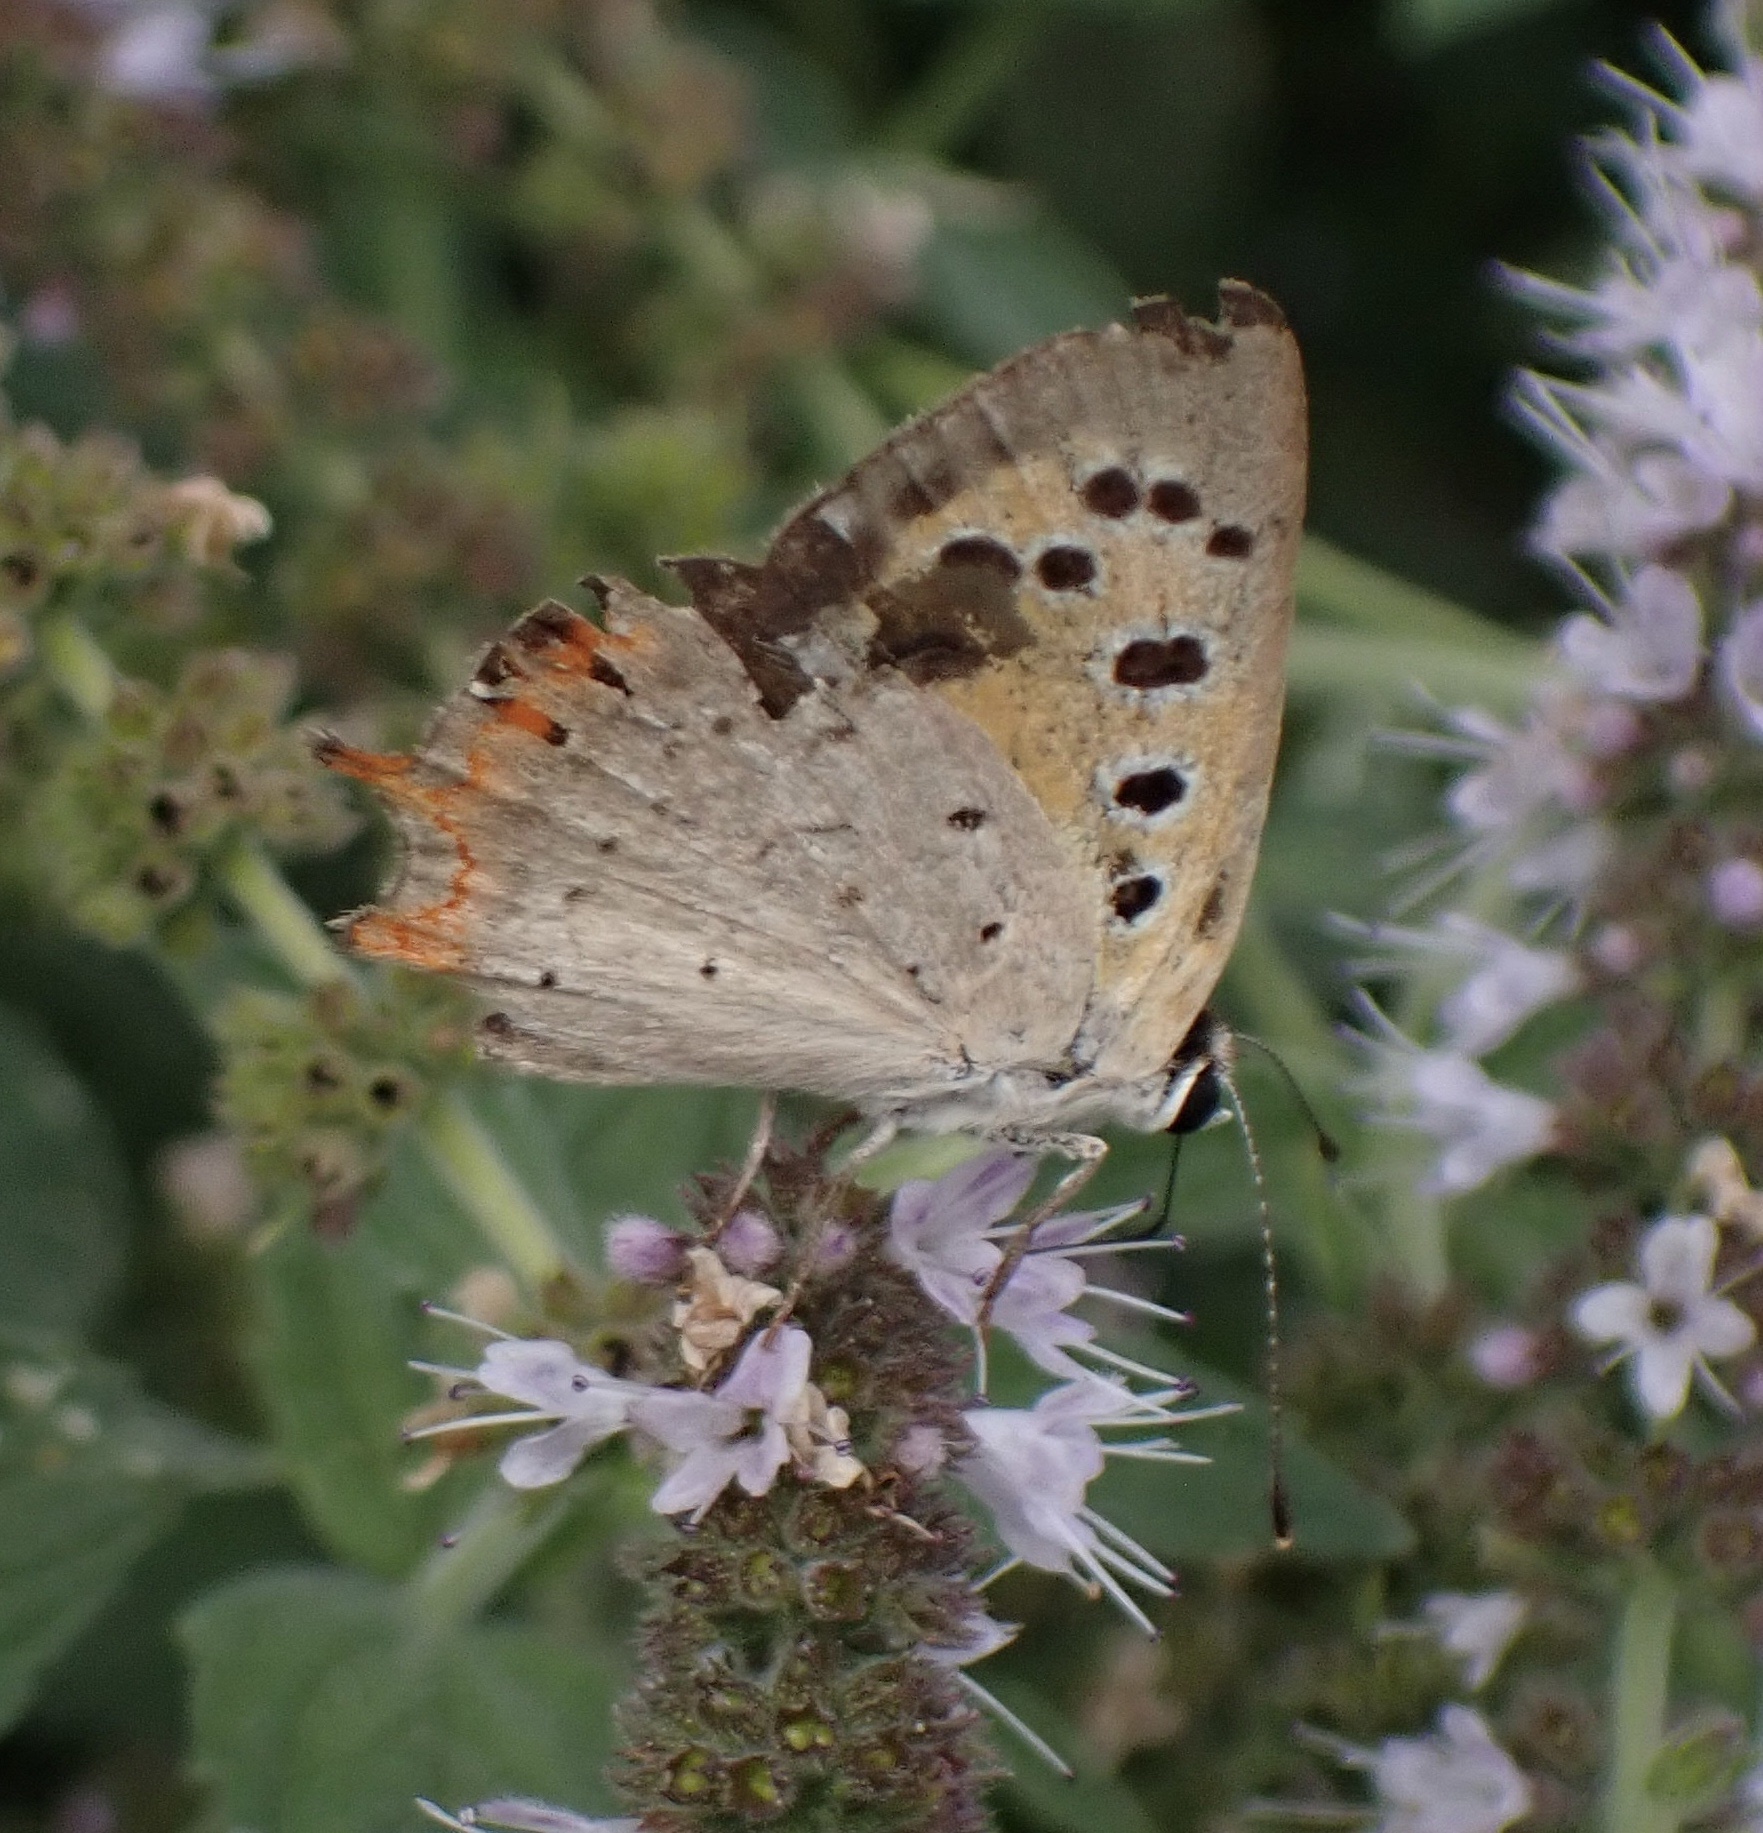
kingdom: Animalia
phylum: Arthropoda
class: Insecta
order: Lepidoptera
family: Lycaenidae
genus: Lycaena
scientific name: Lycaena phlaeas
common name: Small copper
